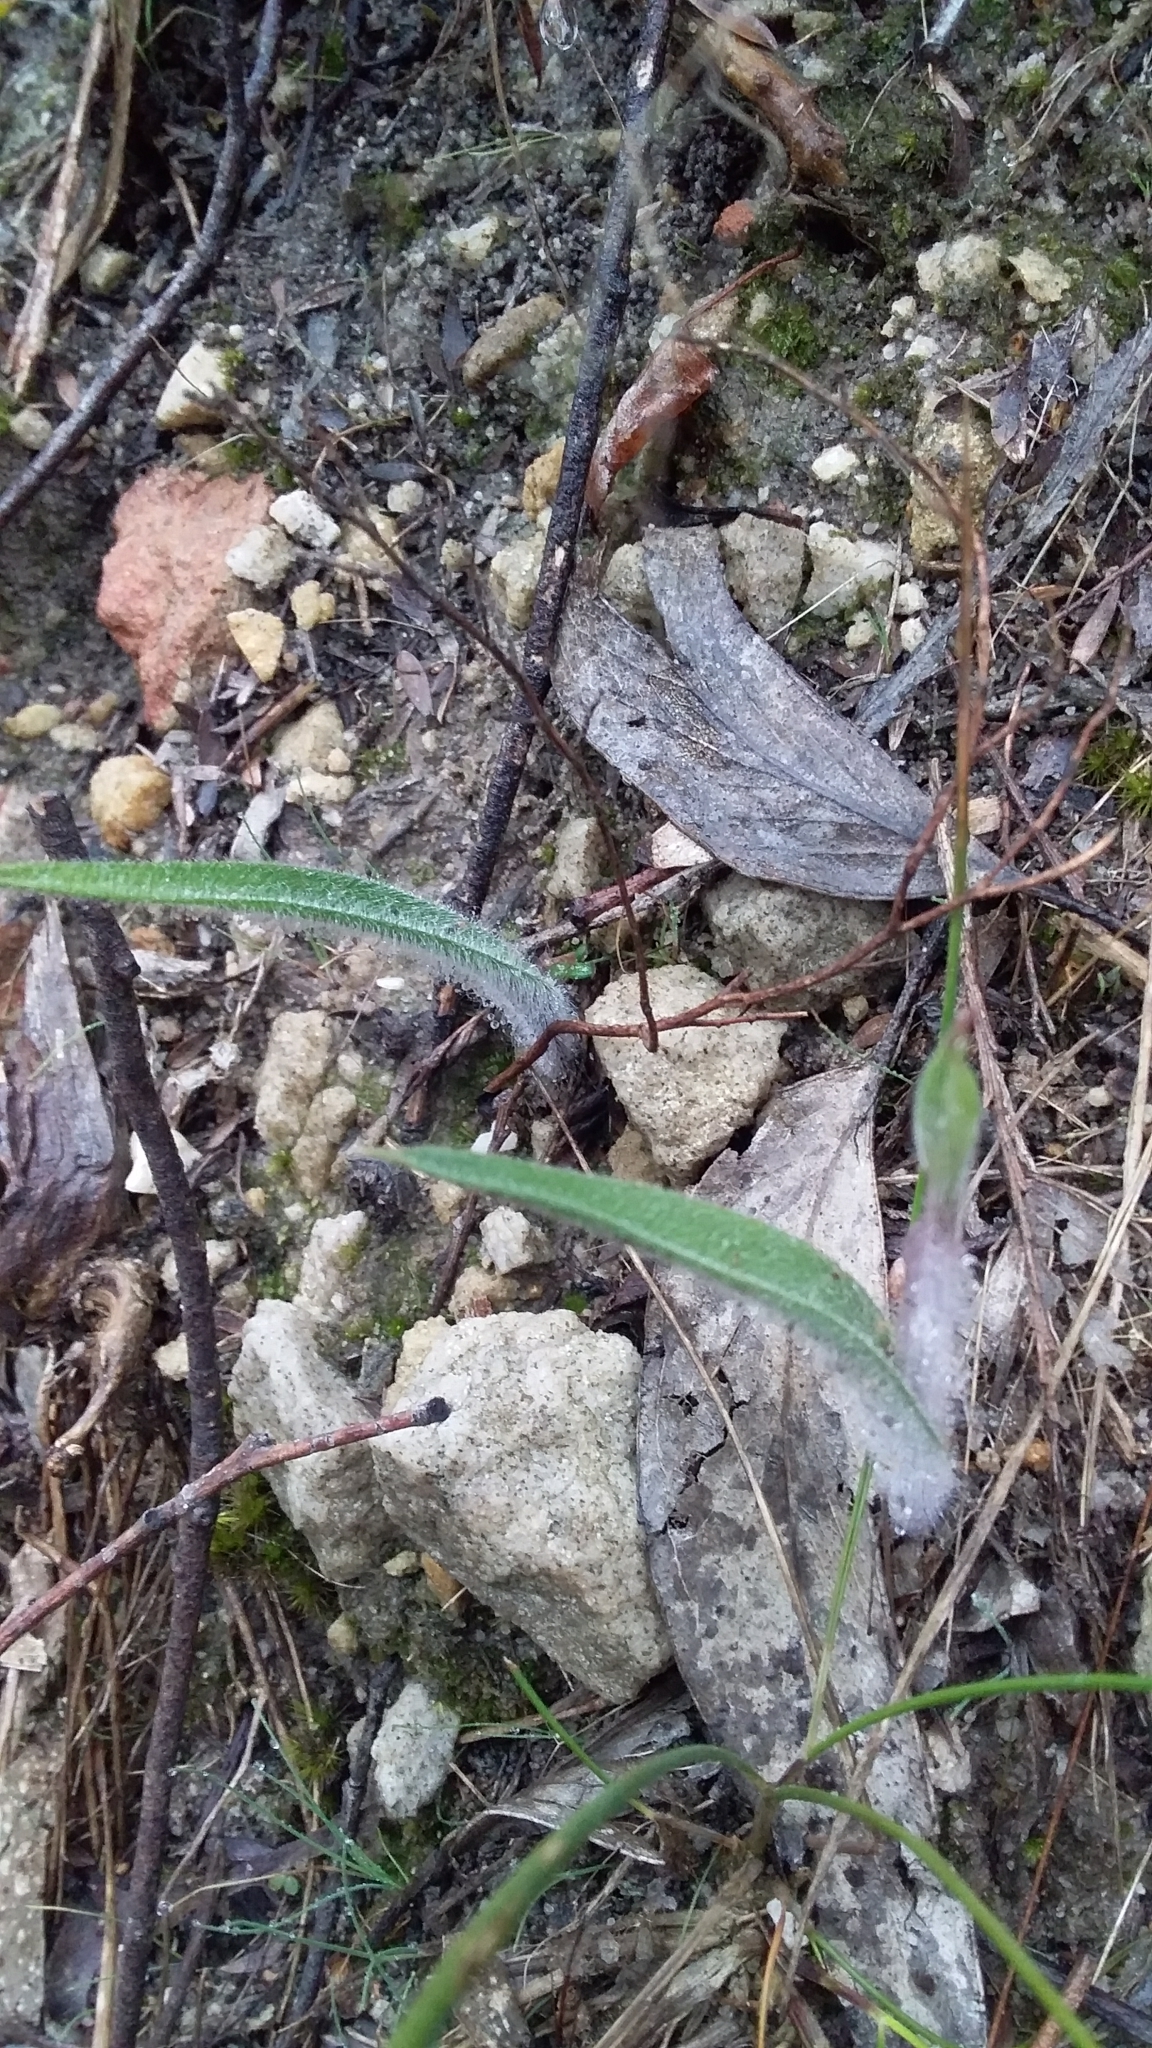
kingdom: Plantae
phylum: Tracheophyta
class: Liliopsida
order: Asparagales
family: Orchidaceae
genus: Caladenia
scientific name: Caladenia tentaculata
